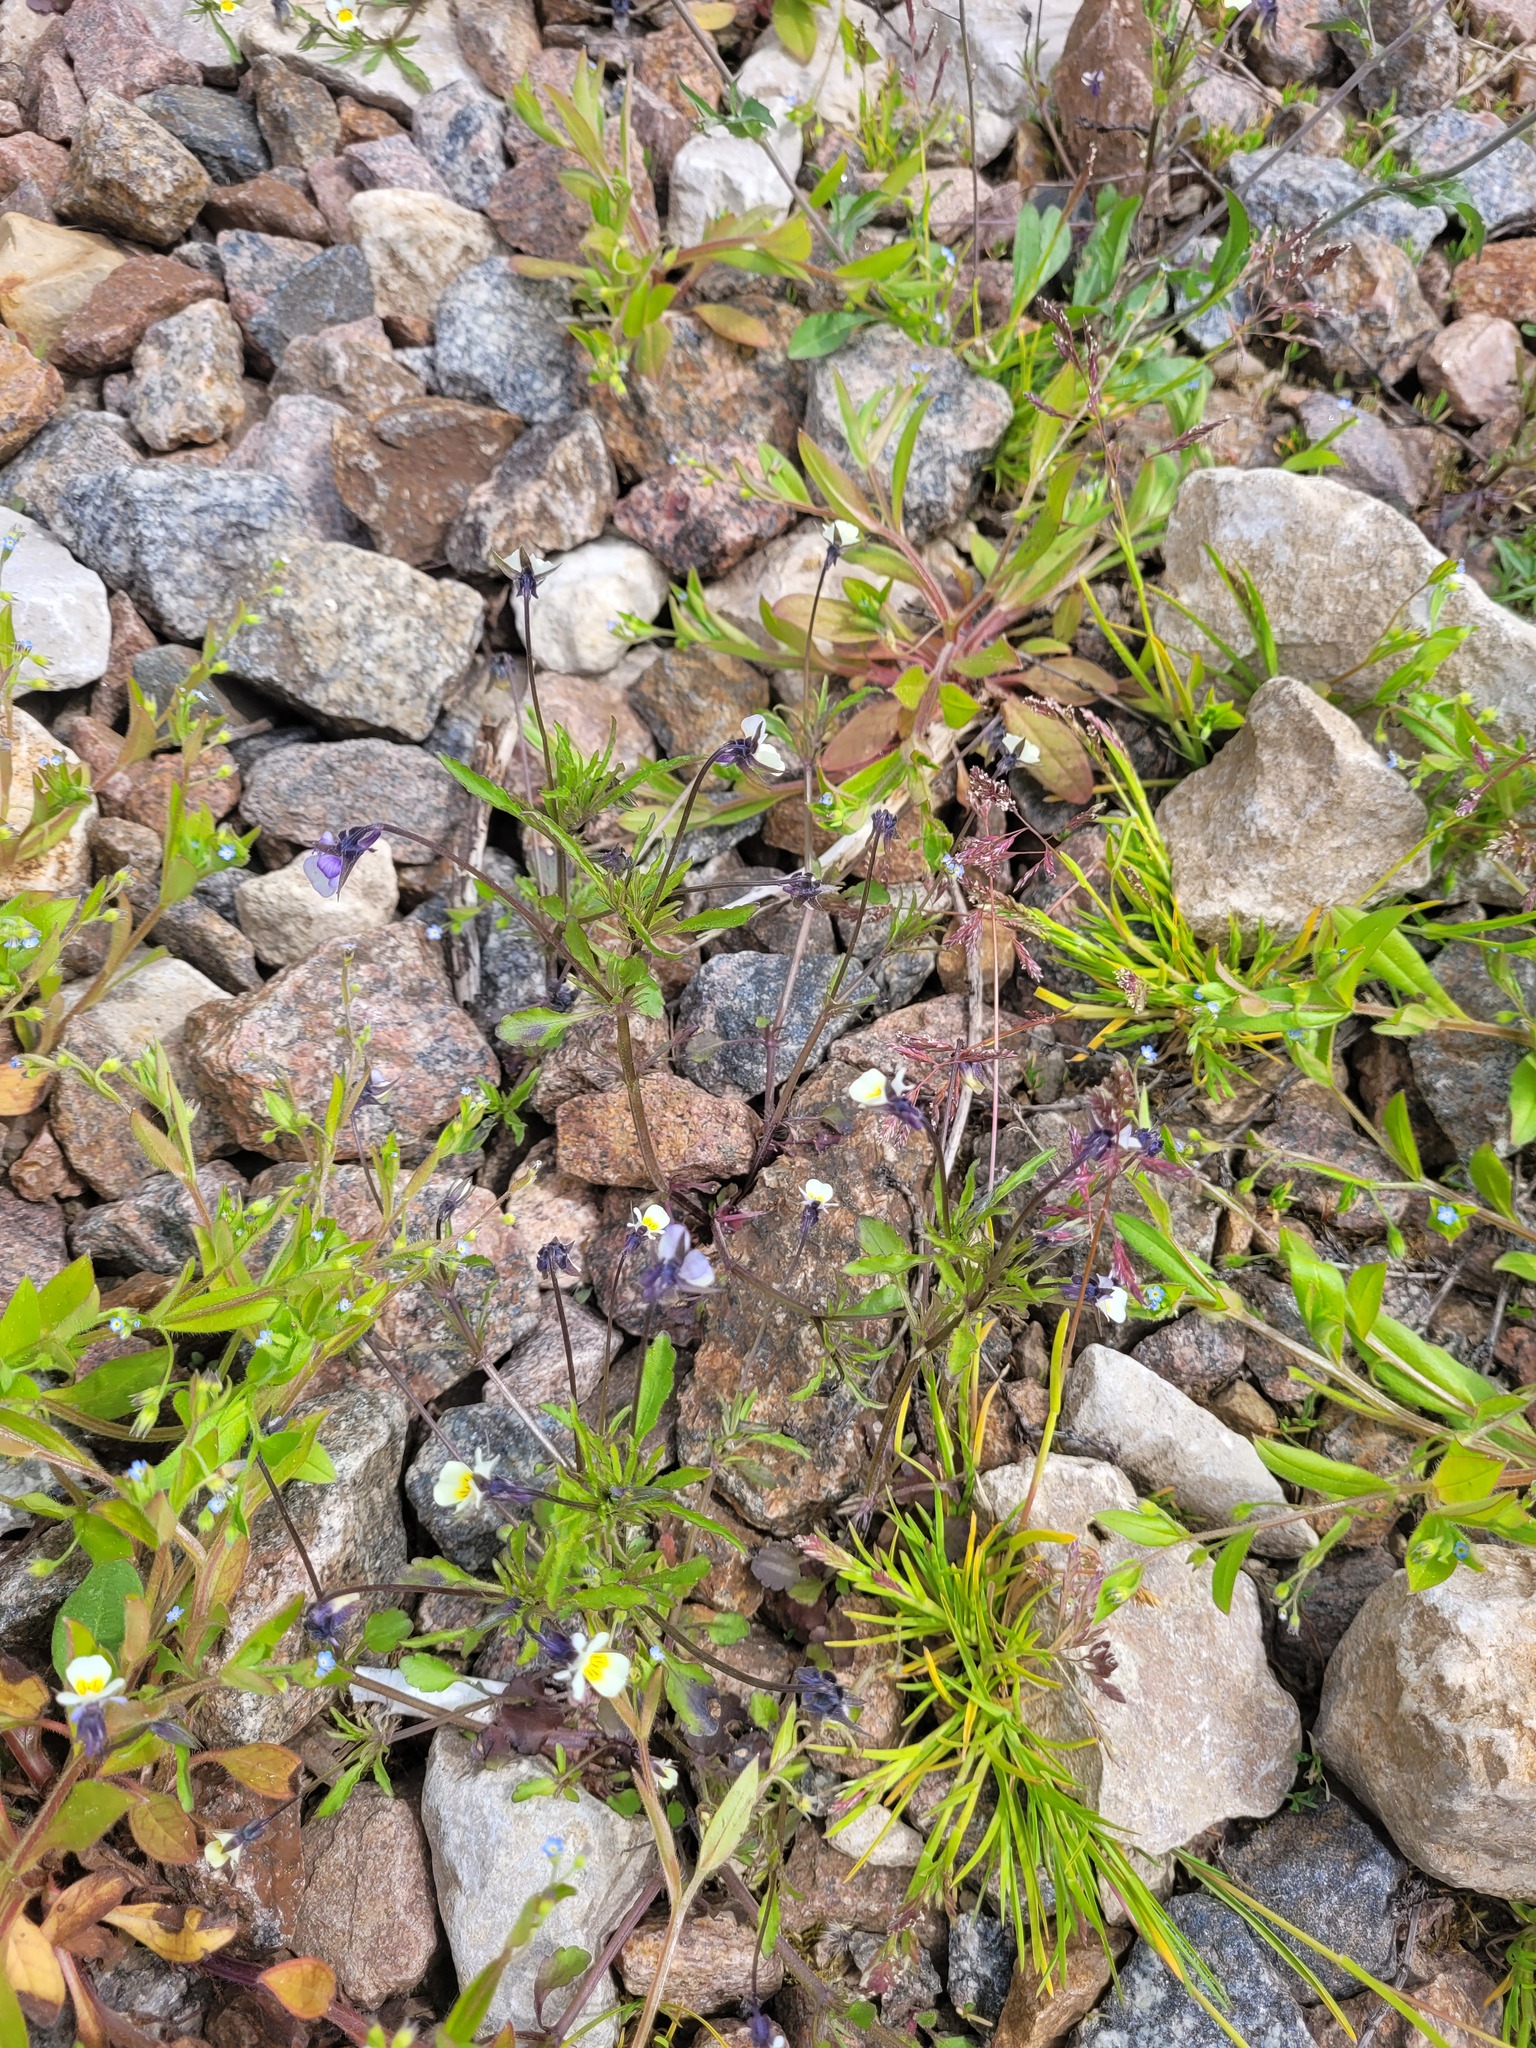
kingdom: Plantae
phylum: Tracheophyta
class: Magnoliopsida
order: Malpighiales
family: Violaceae
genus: Viola
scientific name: Viola arvensis
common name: Field pansy
